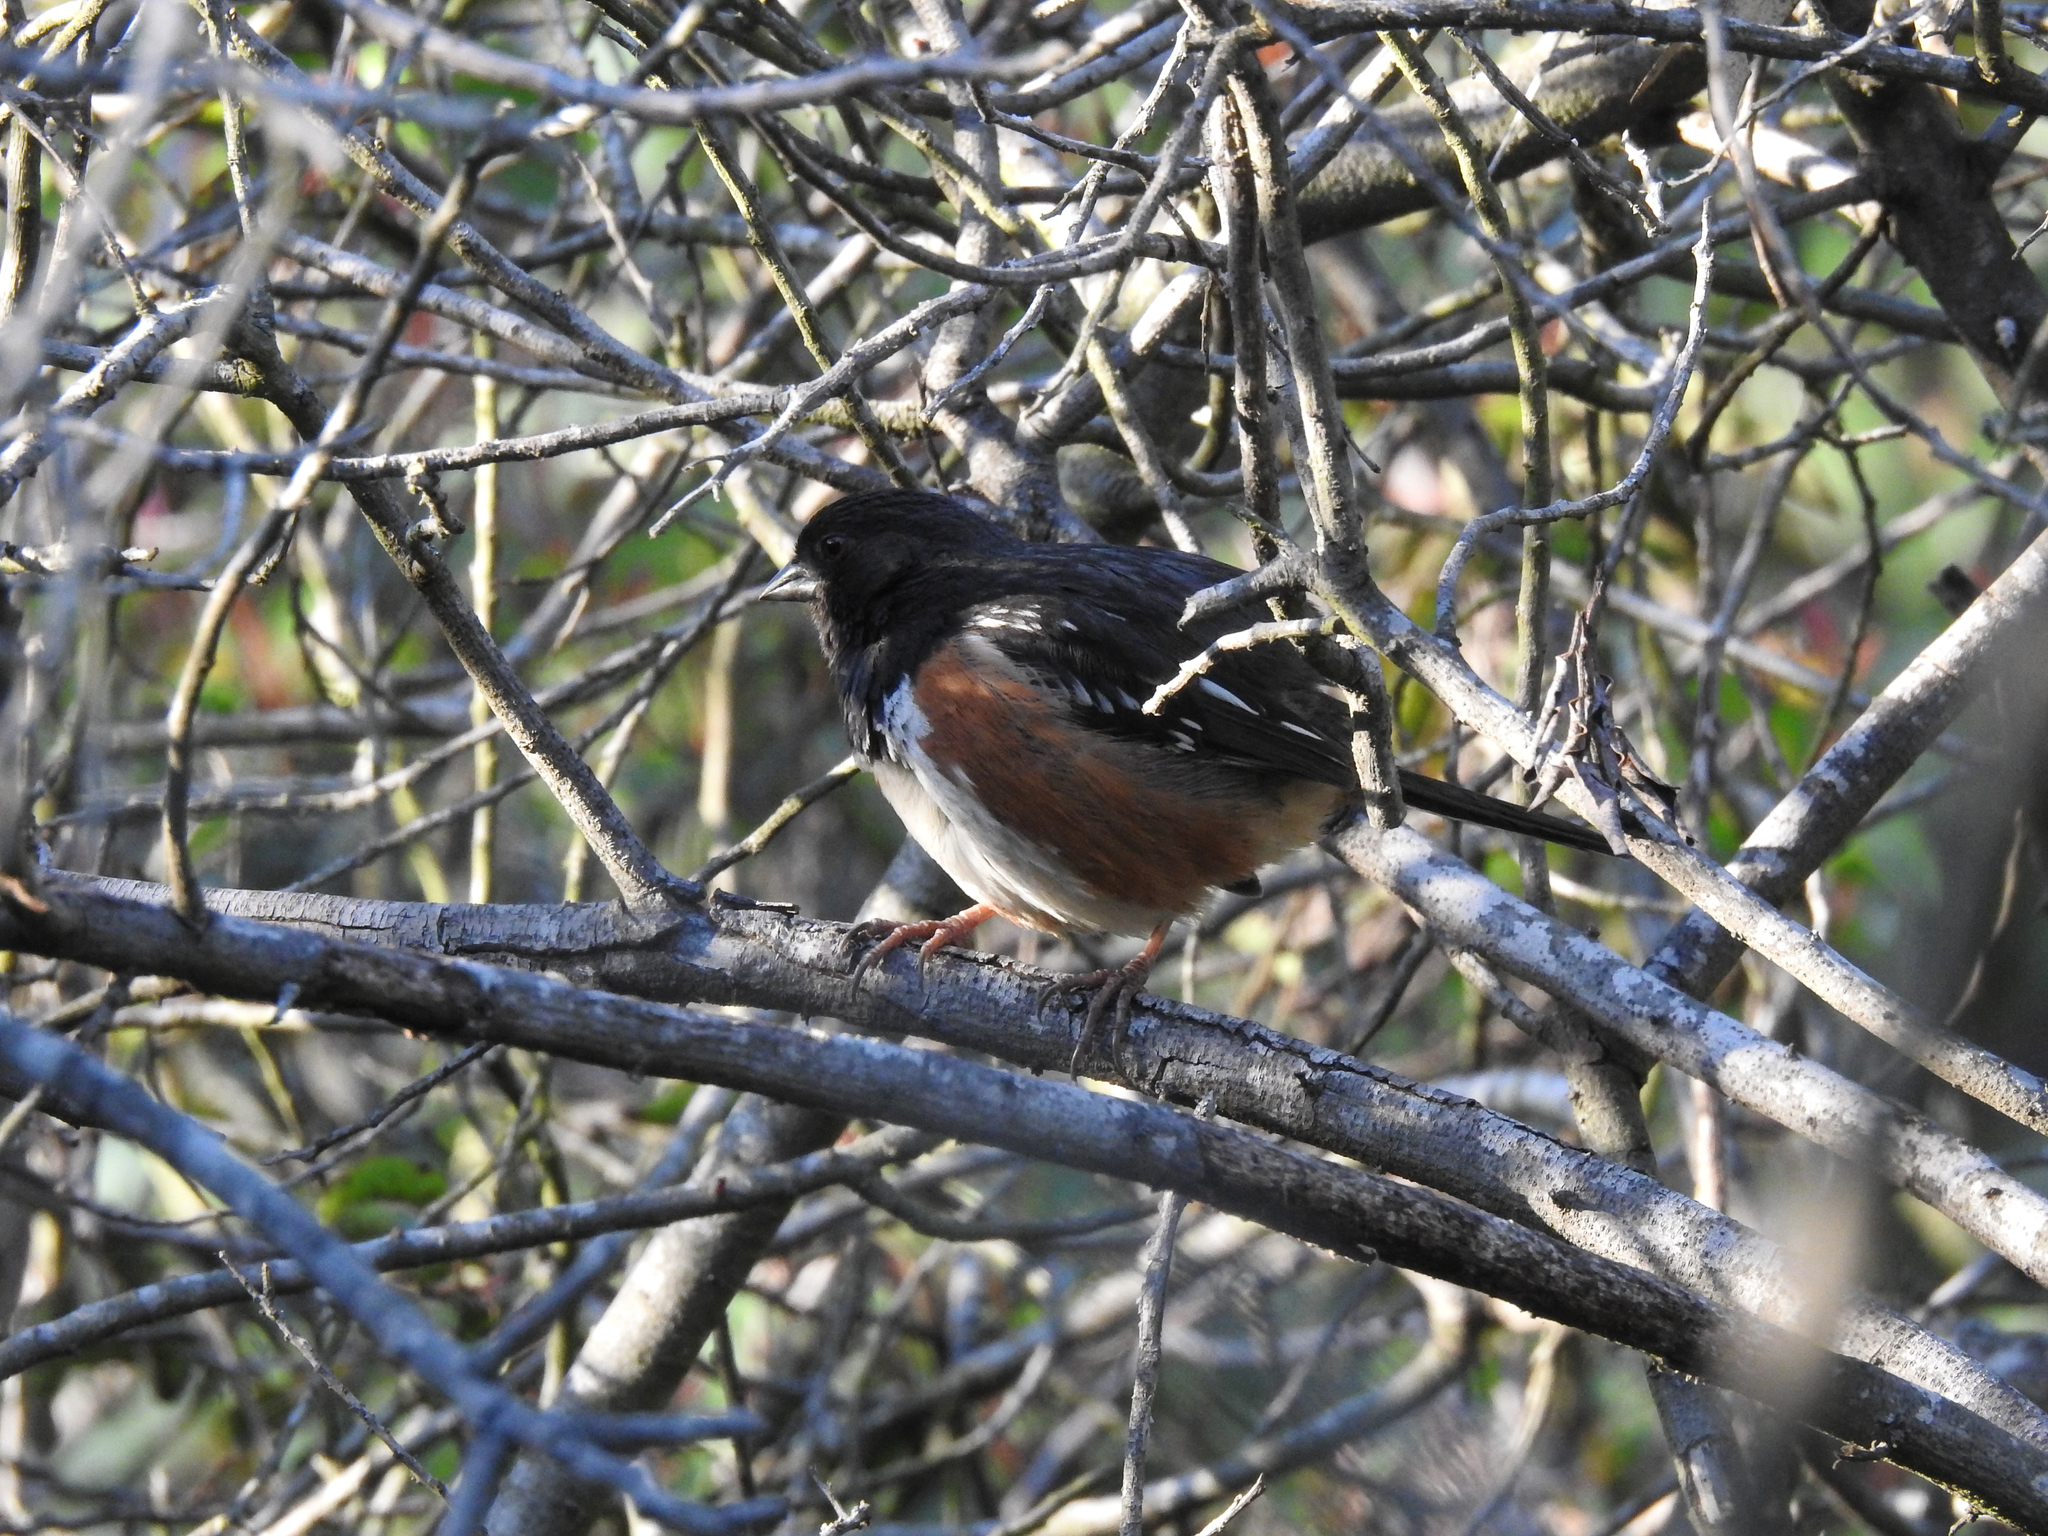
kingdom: Animalia
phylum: Chordata
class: Aves
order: Passeriformes
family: Passerellidae
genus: Pipilo
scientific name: Pipilo maculatus
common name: Spotted towhee
